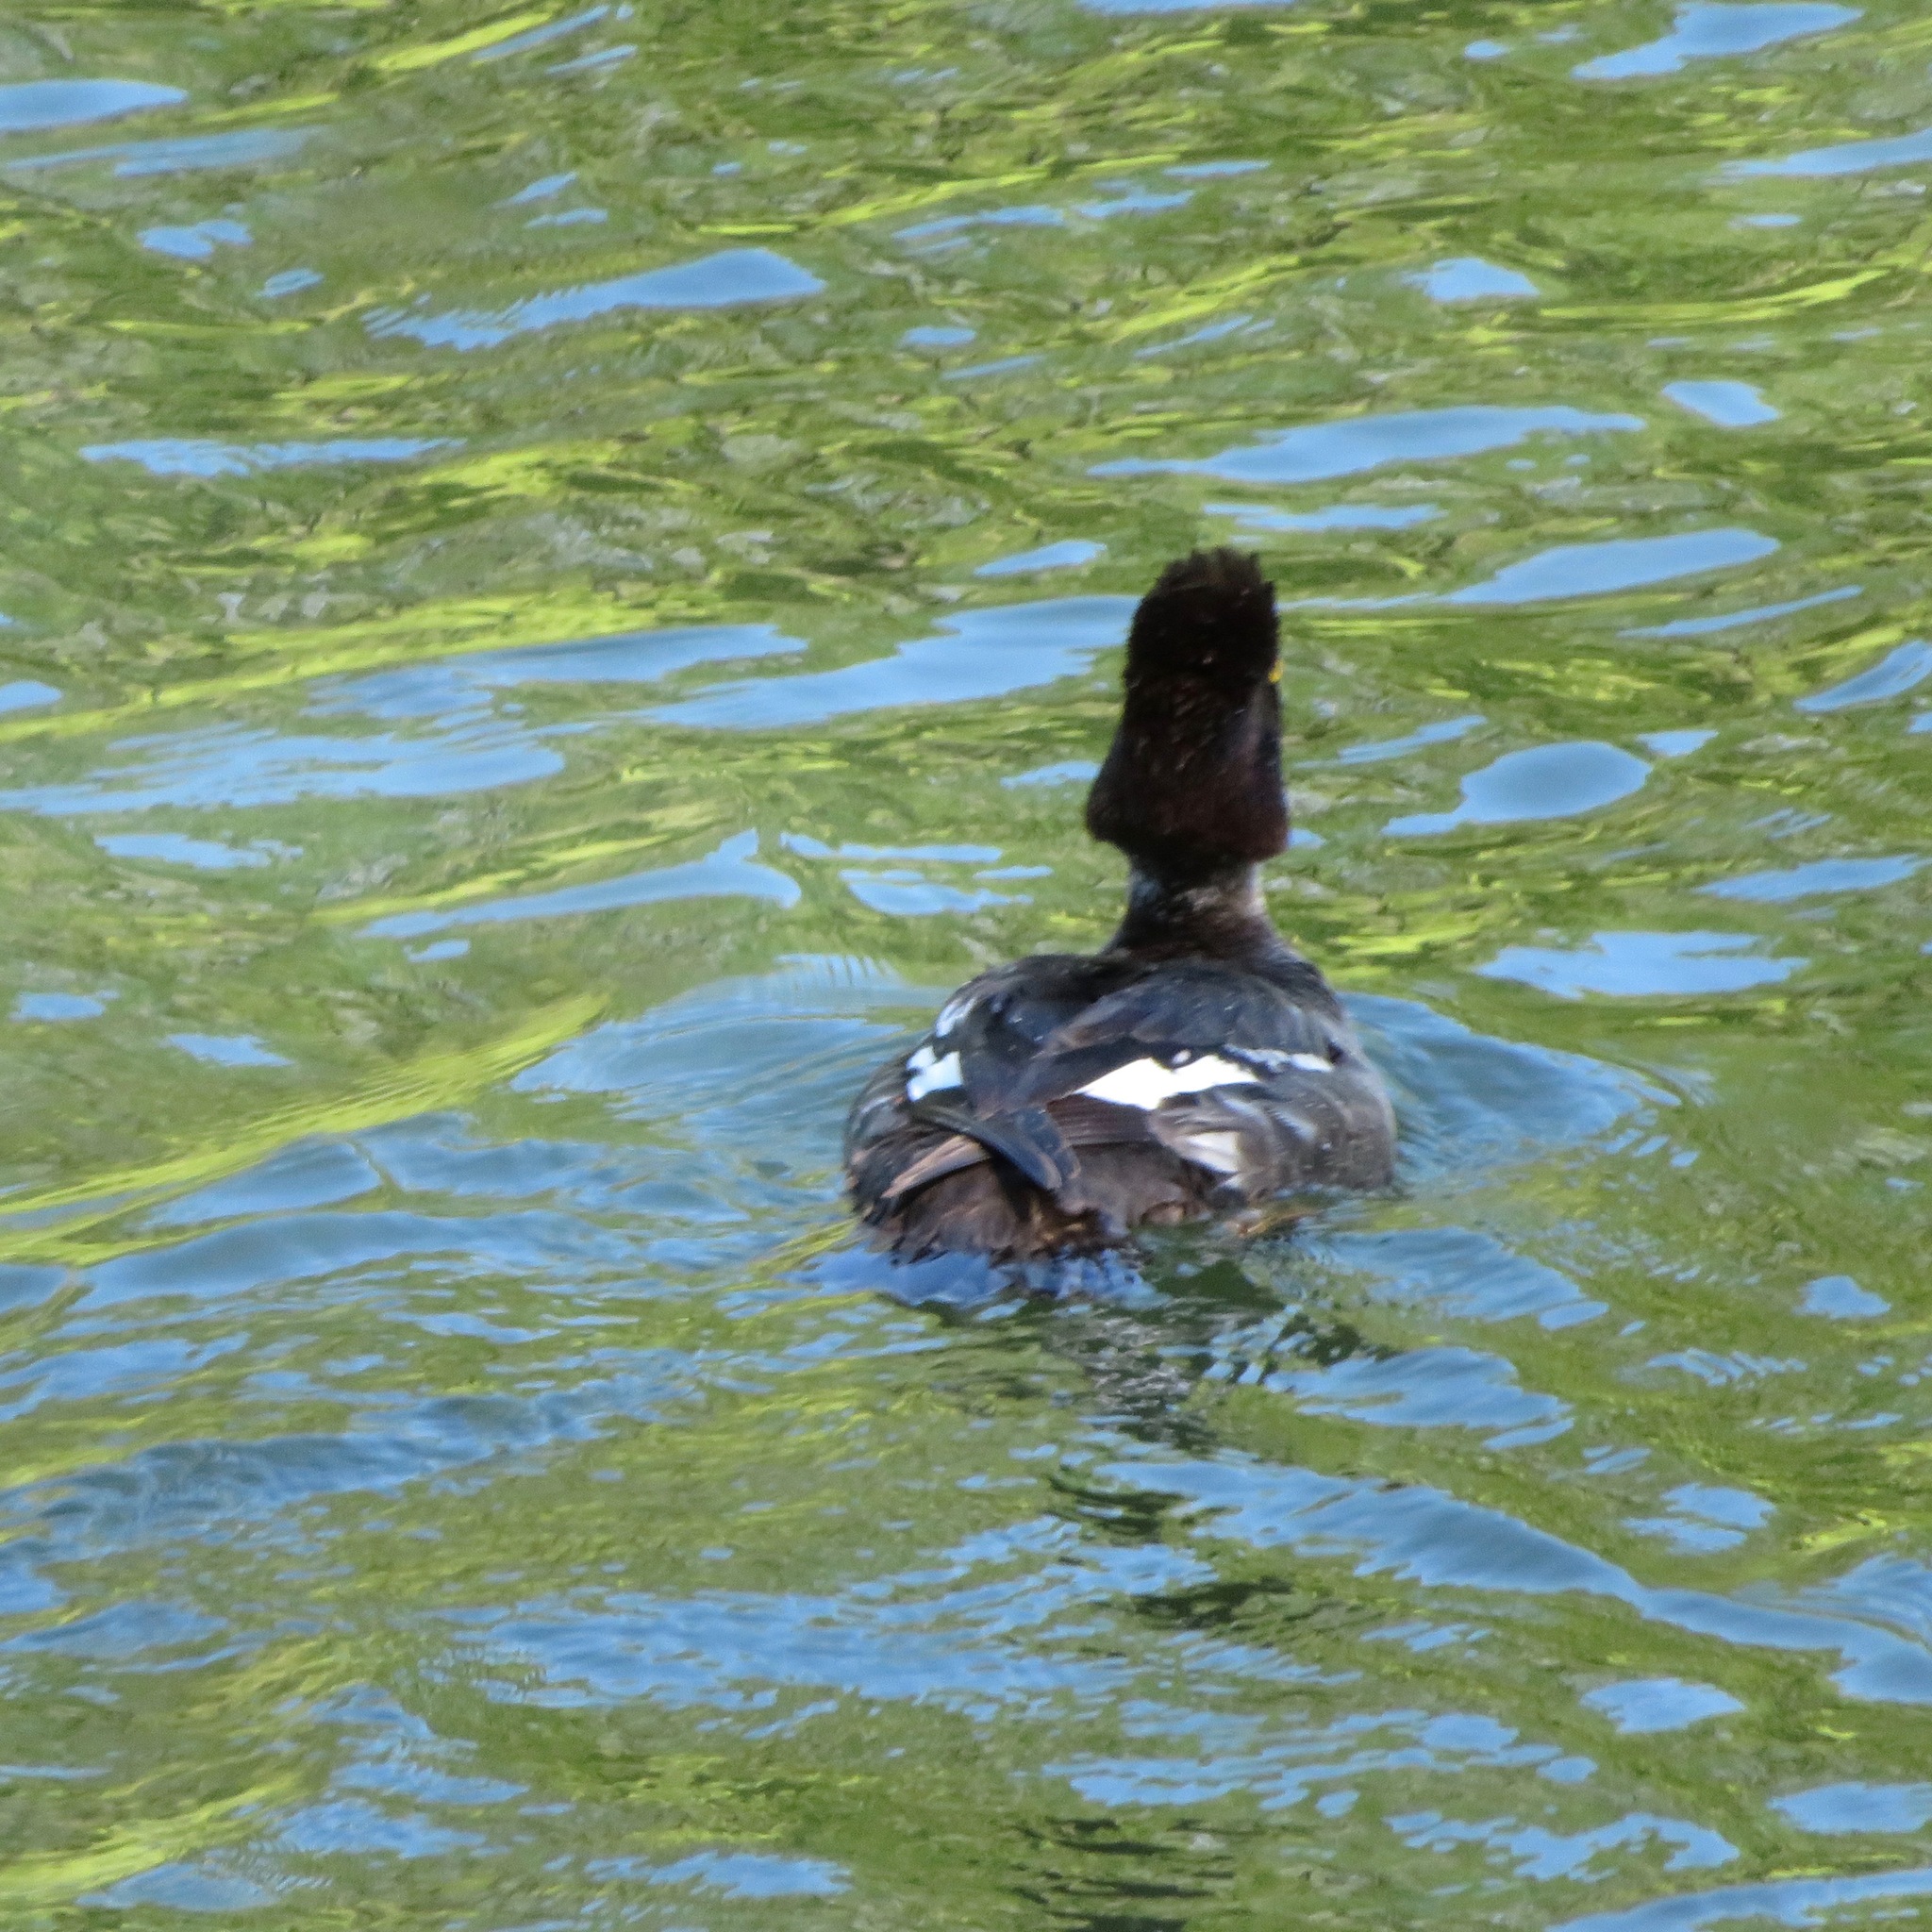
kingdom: Animalia
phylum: Chordata
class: Aves
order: Anseriformes
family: Anatidae
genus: Bucephala
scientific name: Bucephala clangula
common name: Common goldeneye
